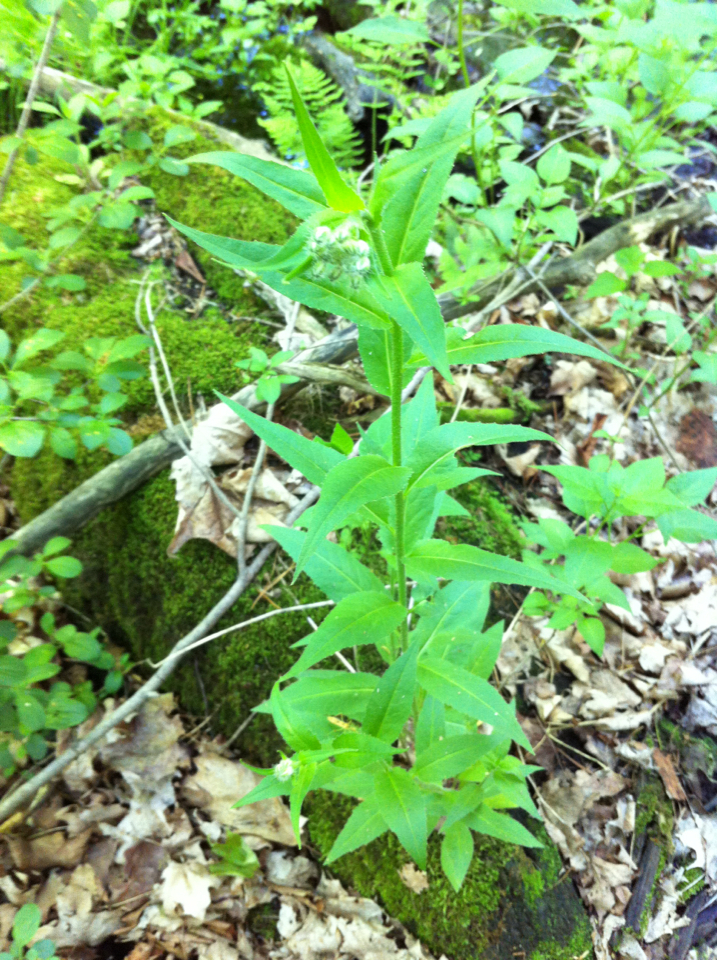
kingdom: Plantae
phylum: Tracheophyta
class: Magnoliopsida
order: Brassicales
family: Brassicaceae
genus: Hesperis
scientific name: Hesperis matronalis
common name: Dame's-violet
